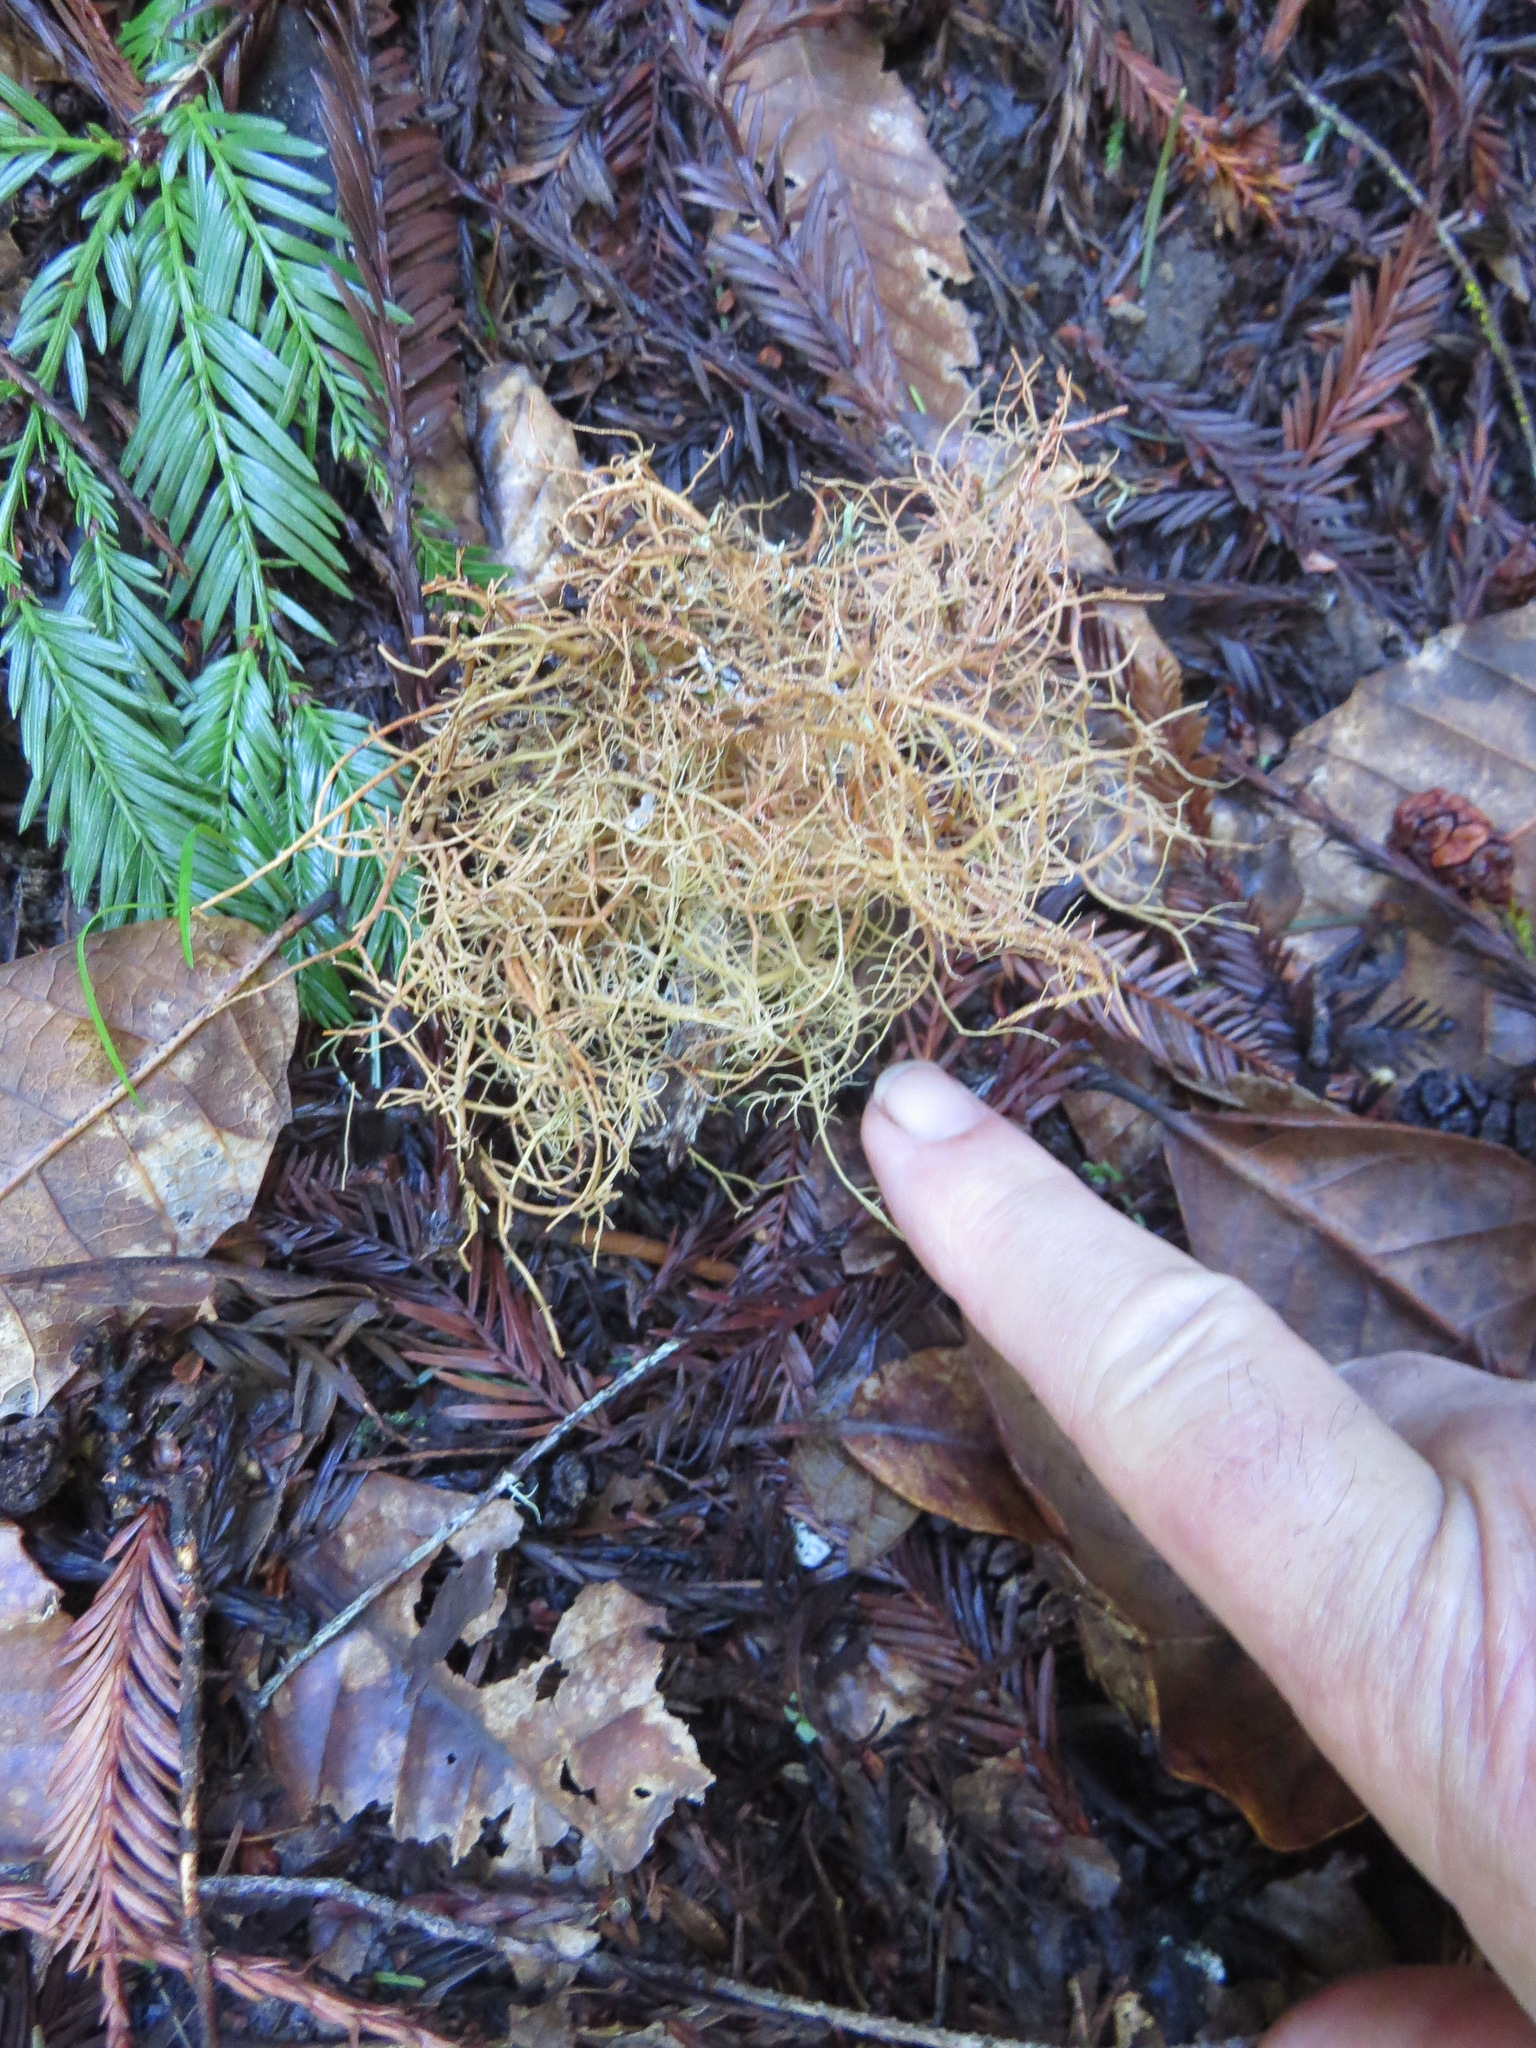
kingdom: Fungi
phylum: Ascomycota
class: Lecanoromycetes
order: Lecanorales
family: Parmeliaceae
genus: Usnea
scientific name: Usnea rubicunda
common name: Red beard lichen
